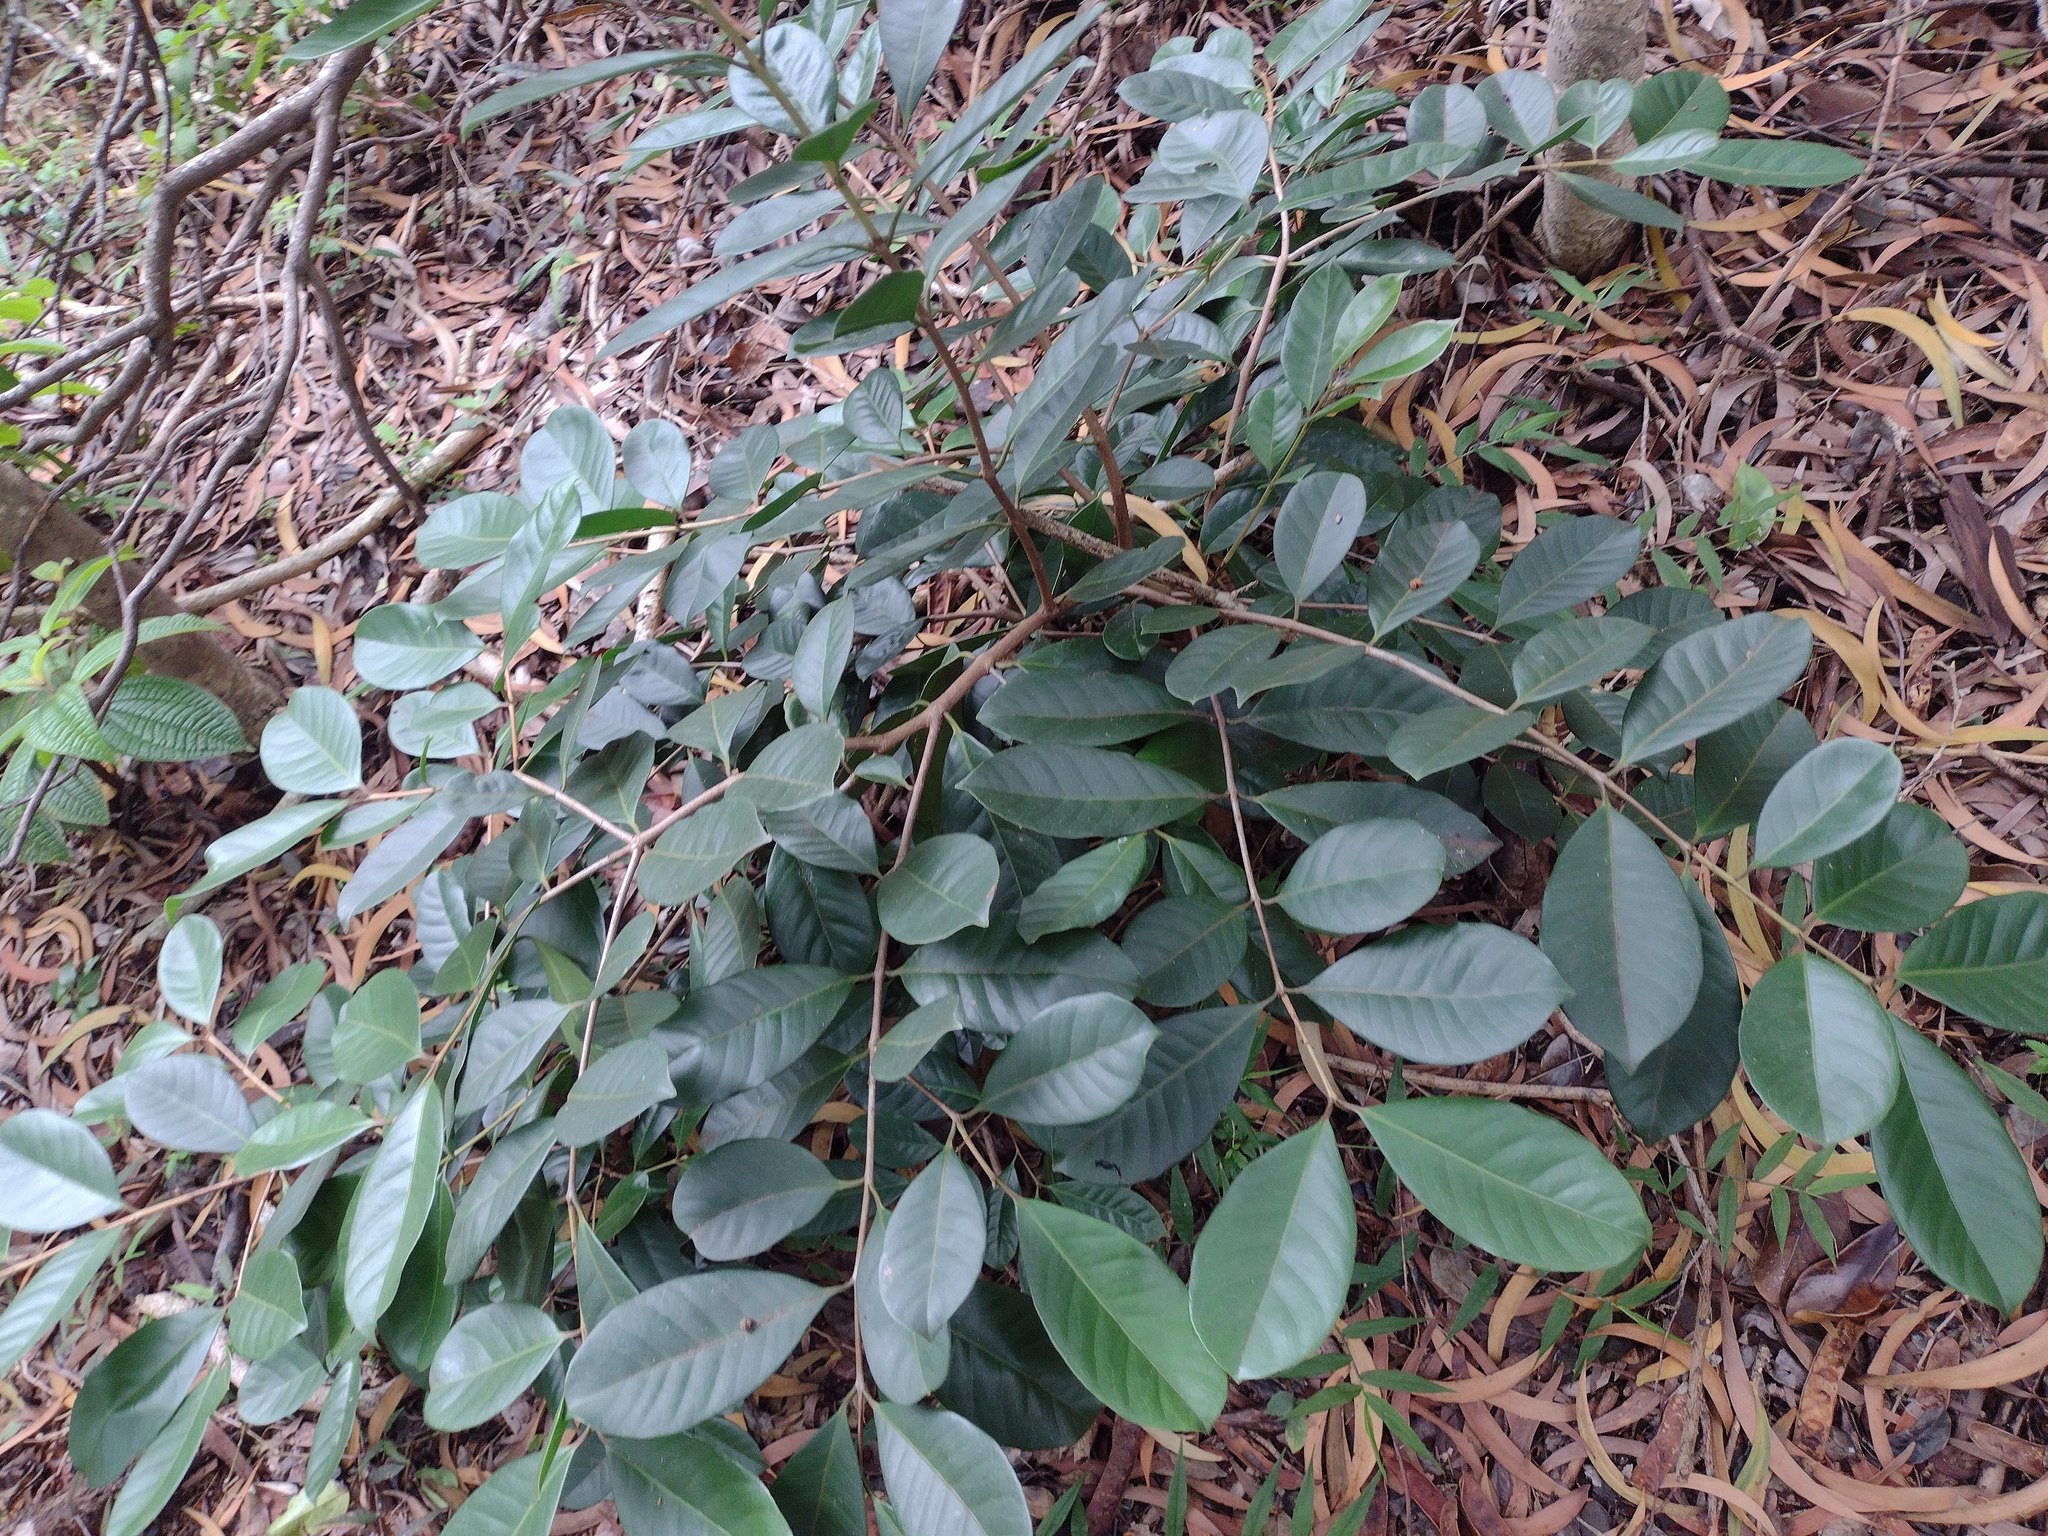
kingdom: Plantae
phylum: Tracheophyta
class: Magnoliopsida
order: Myrtales
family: Myrtaceae
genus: Psidium
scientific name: Psidium cattleianum
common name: Strawberry guava
